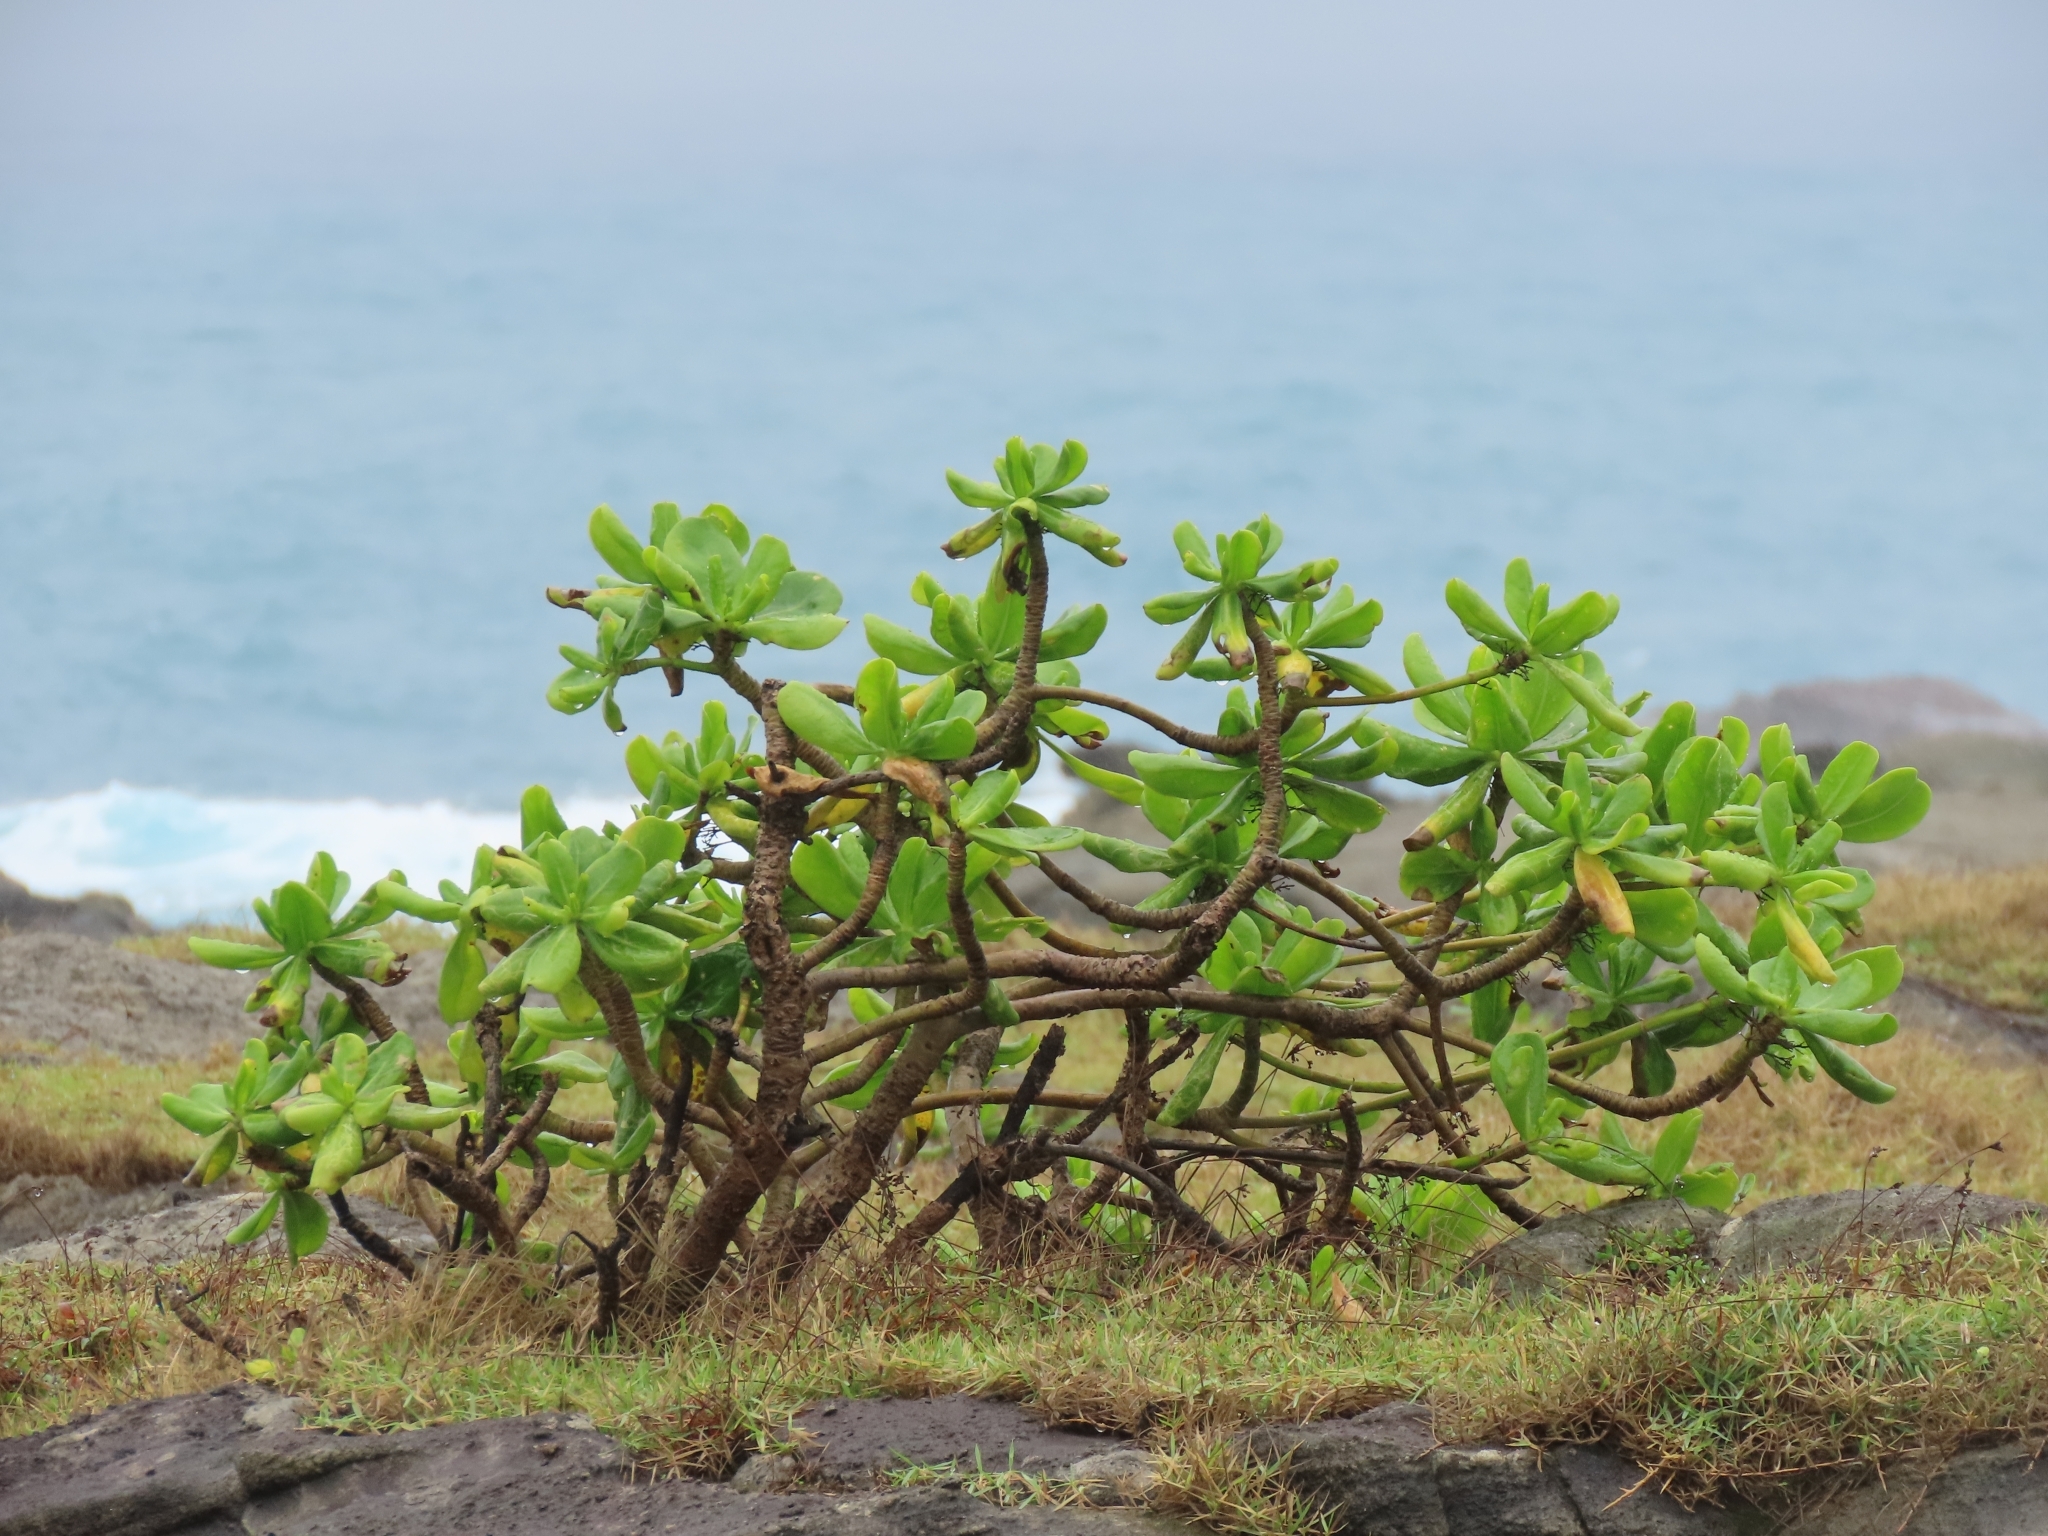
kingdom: Plantae
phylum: Tracheophyta
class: Magnoliopsida
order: Asterales
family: Goodeniaceae
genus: Scaevola
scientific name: Scaevola taccada
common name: Sea lettucetree
